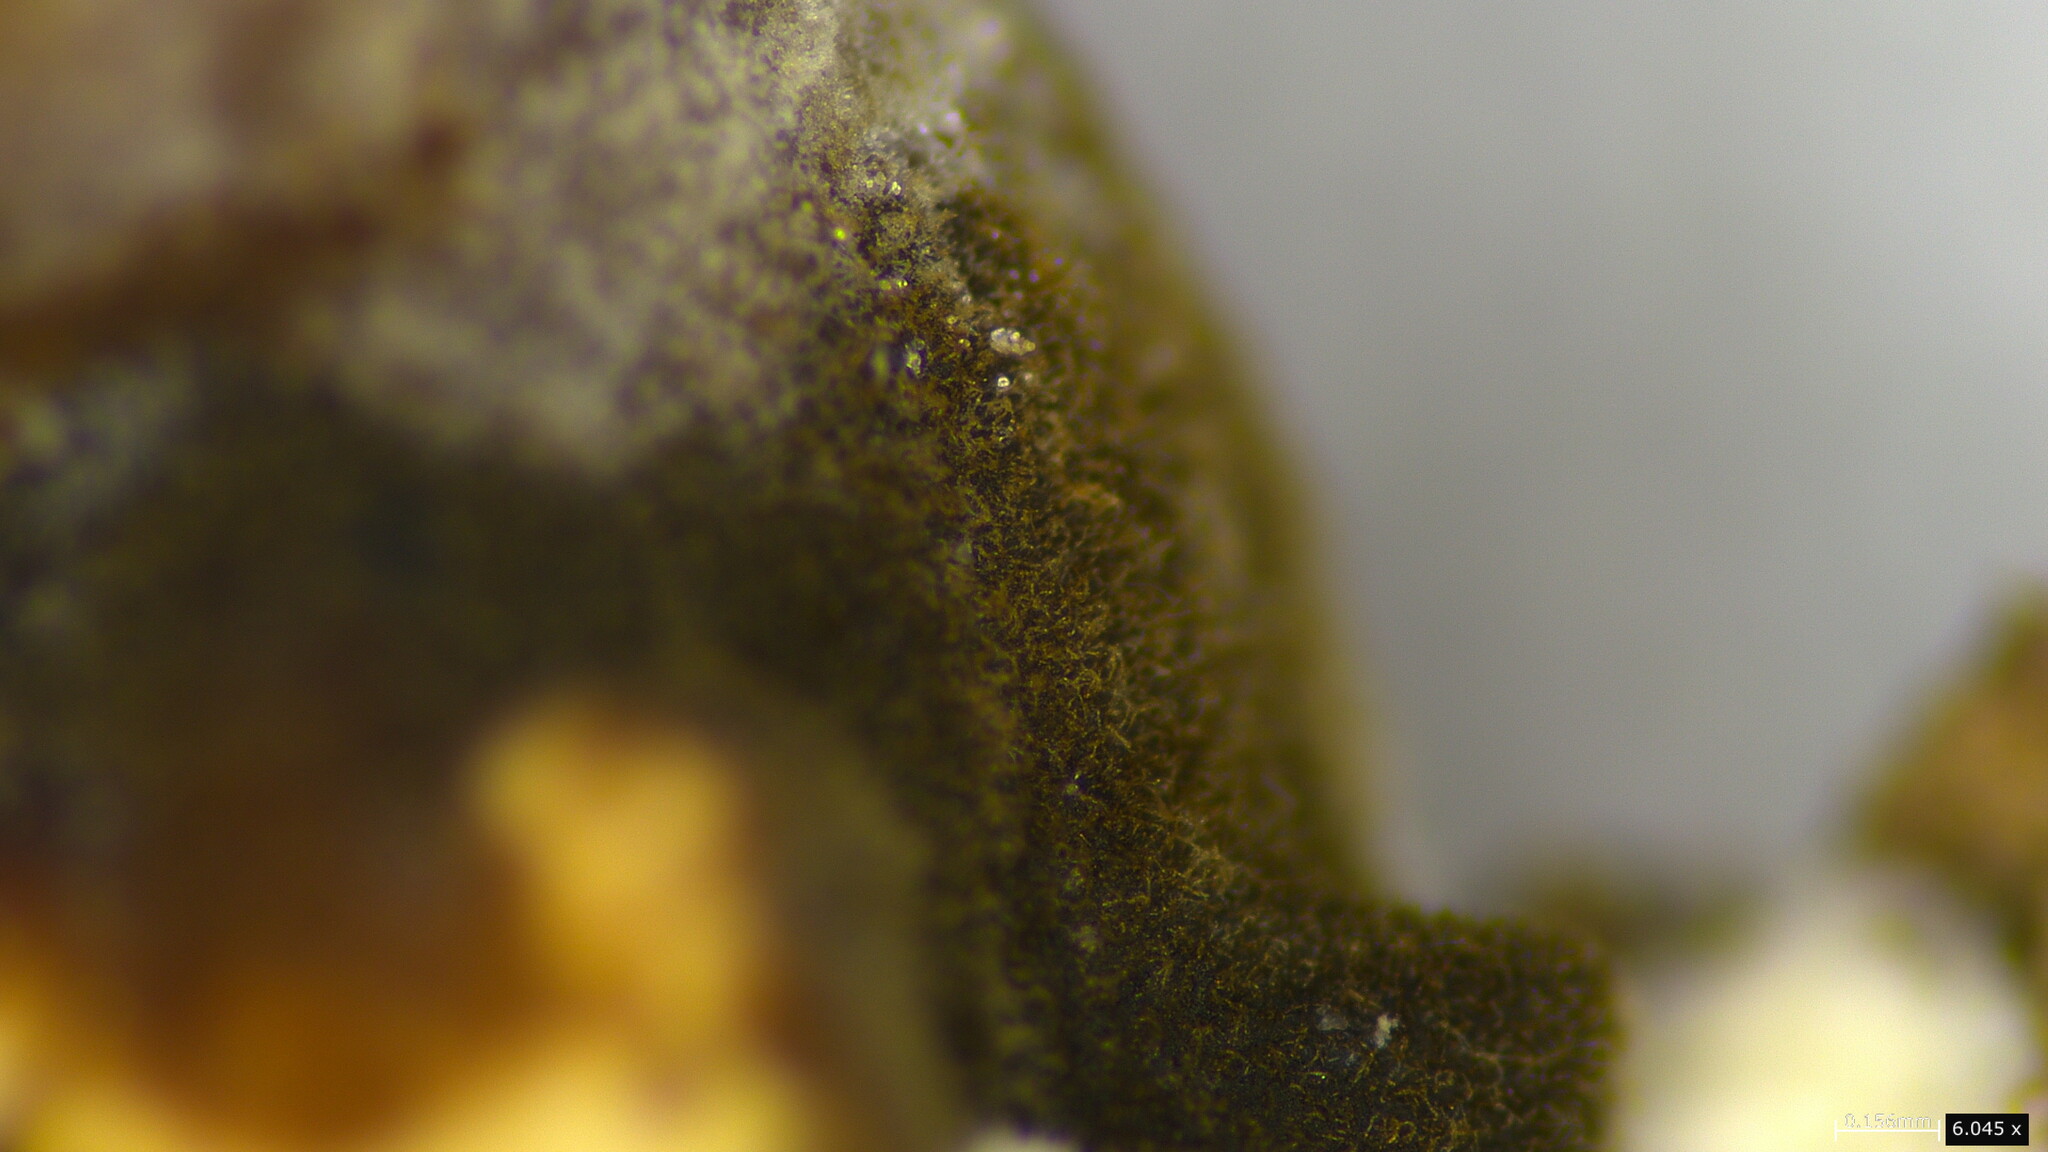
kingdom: Fungi
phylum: Basidiomycota
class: Agaricomycetes
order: Polyporales
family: Polyporaceae
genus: Cerioporus
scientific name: Cerioporus varius
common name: Elegant polypore
